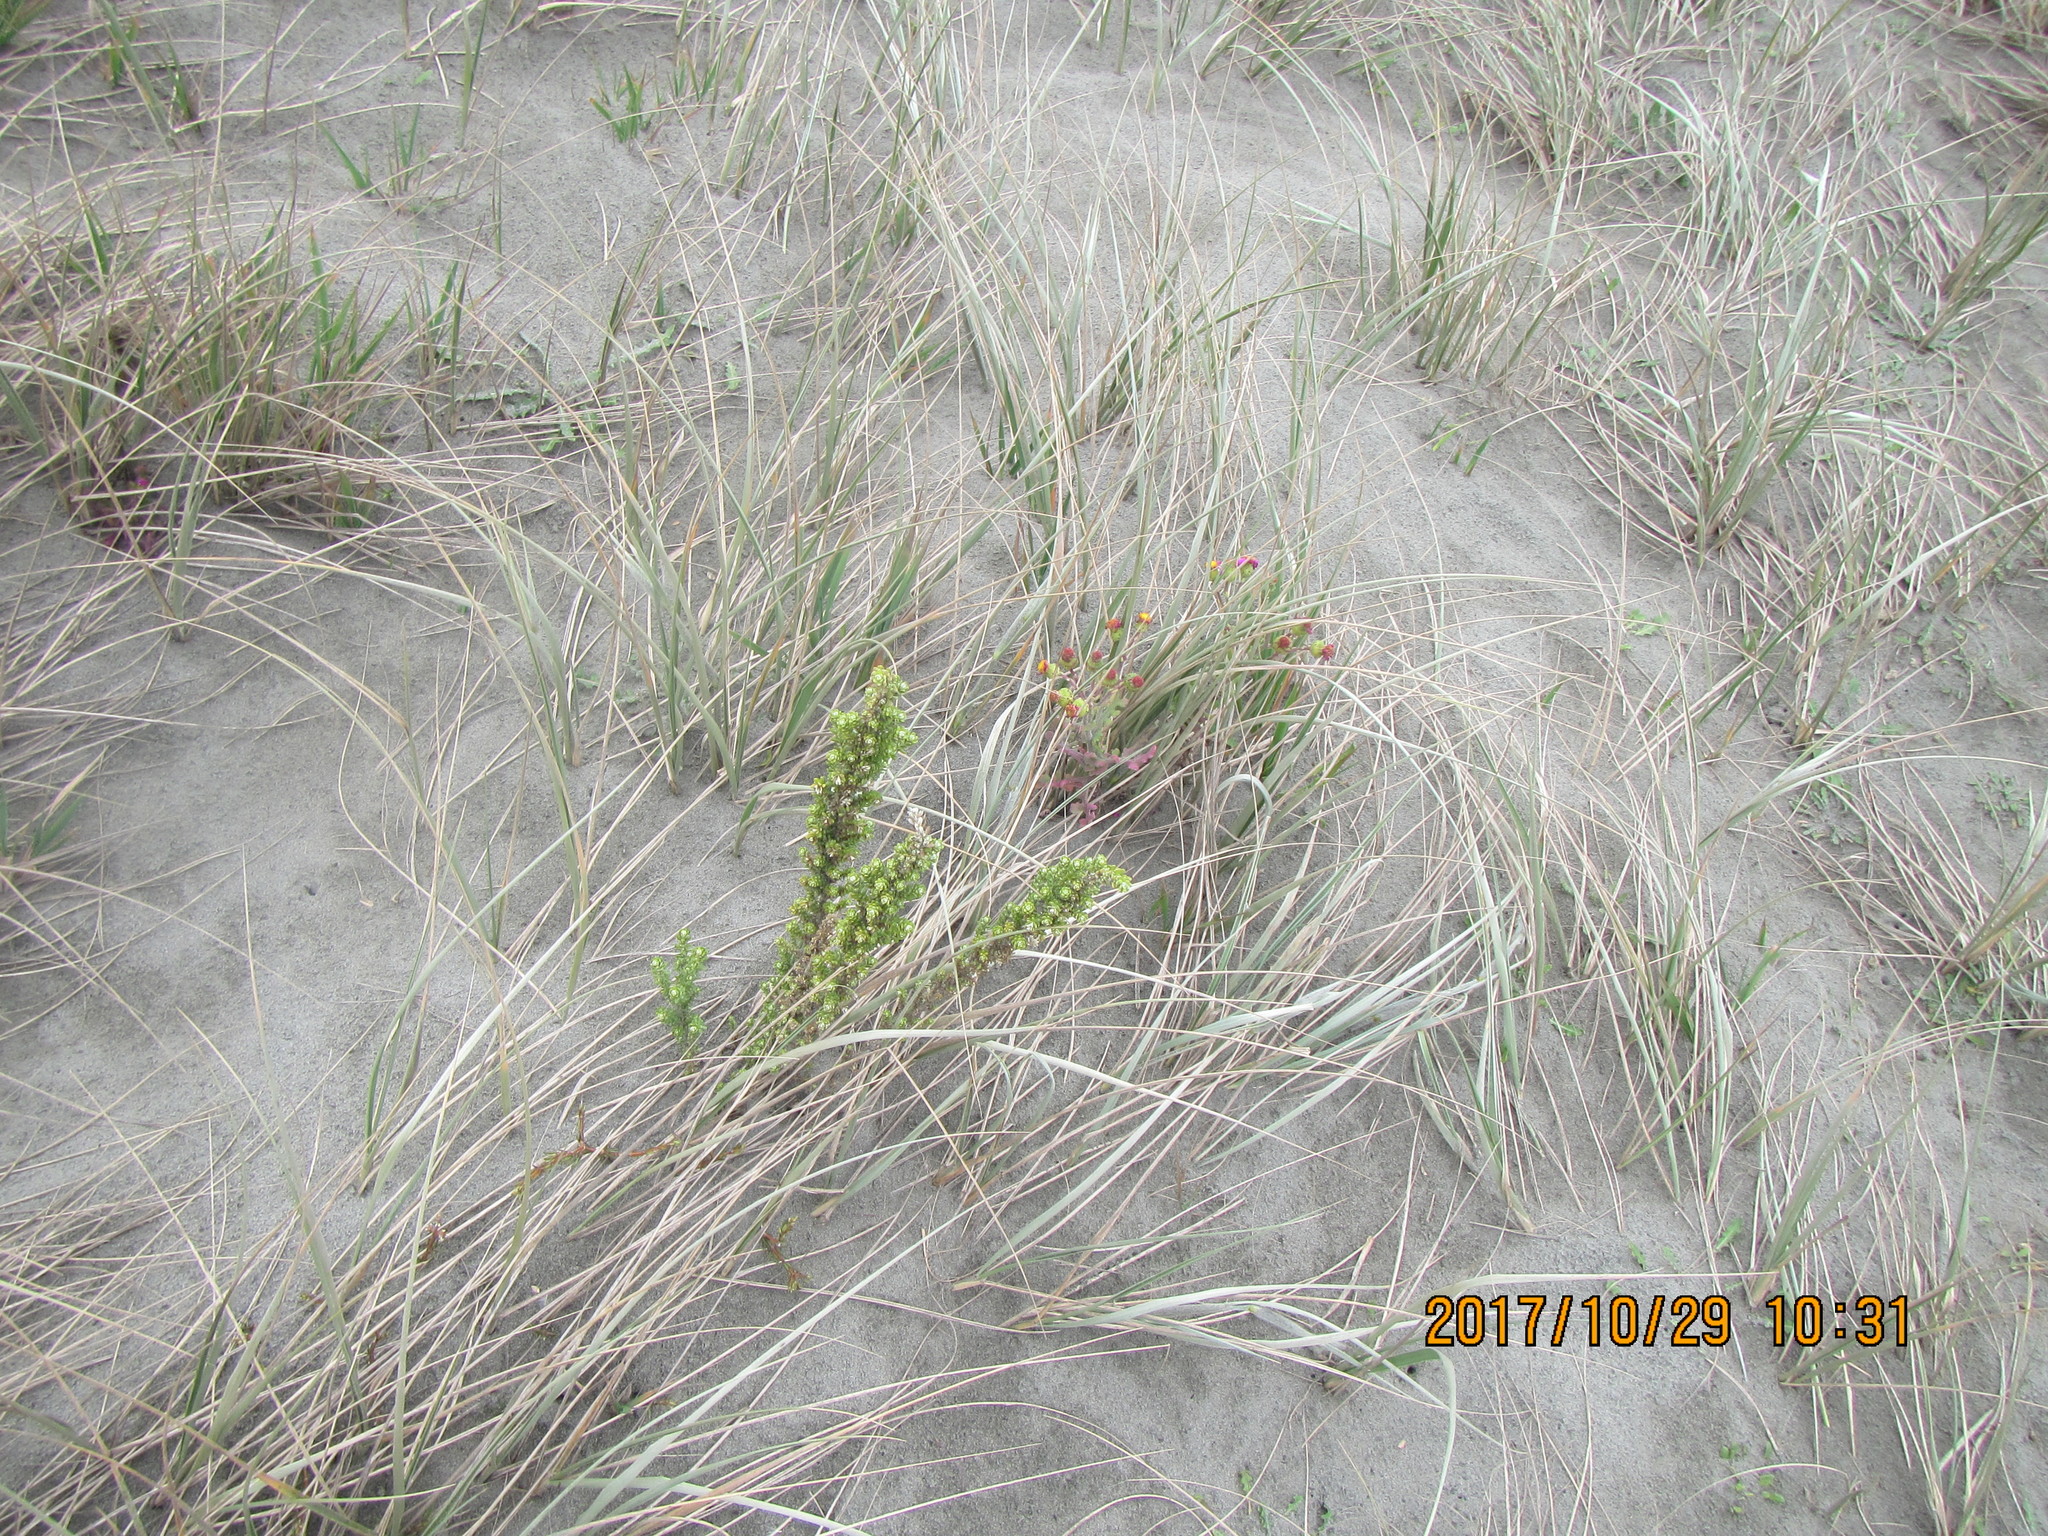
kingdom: Plantae
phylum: Tracheophyta
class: Magnoliopsida
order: Asterales
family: Asteraceae
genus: Ozothamnus
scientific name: Ozothamnus leptophyllus
